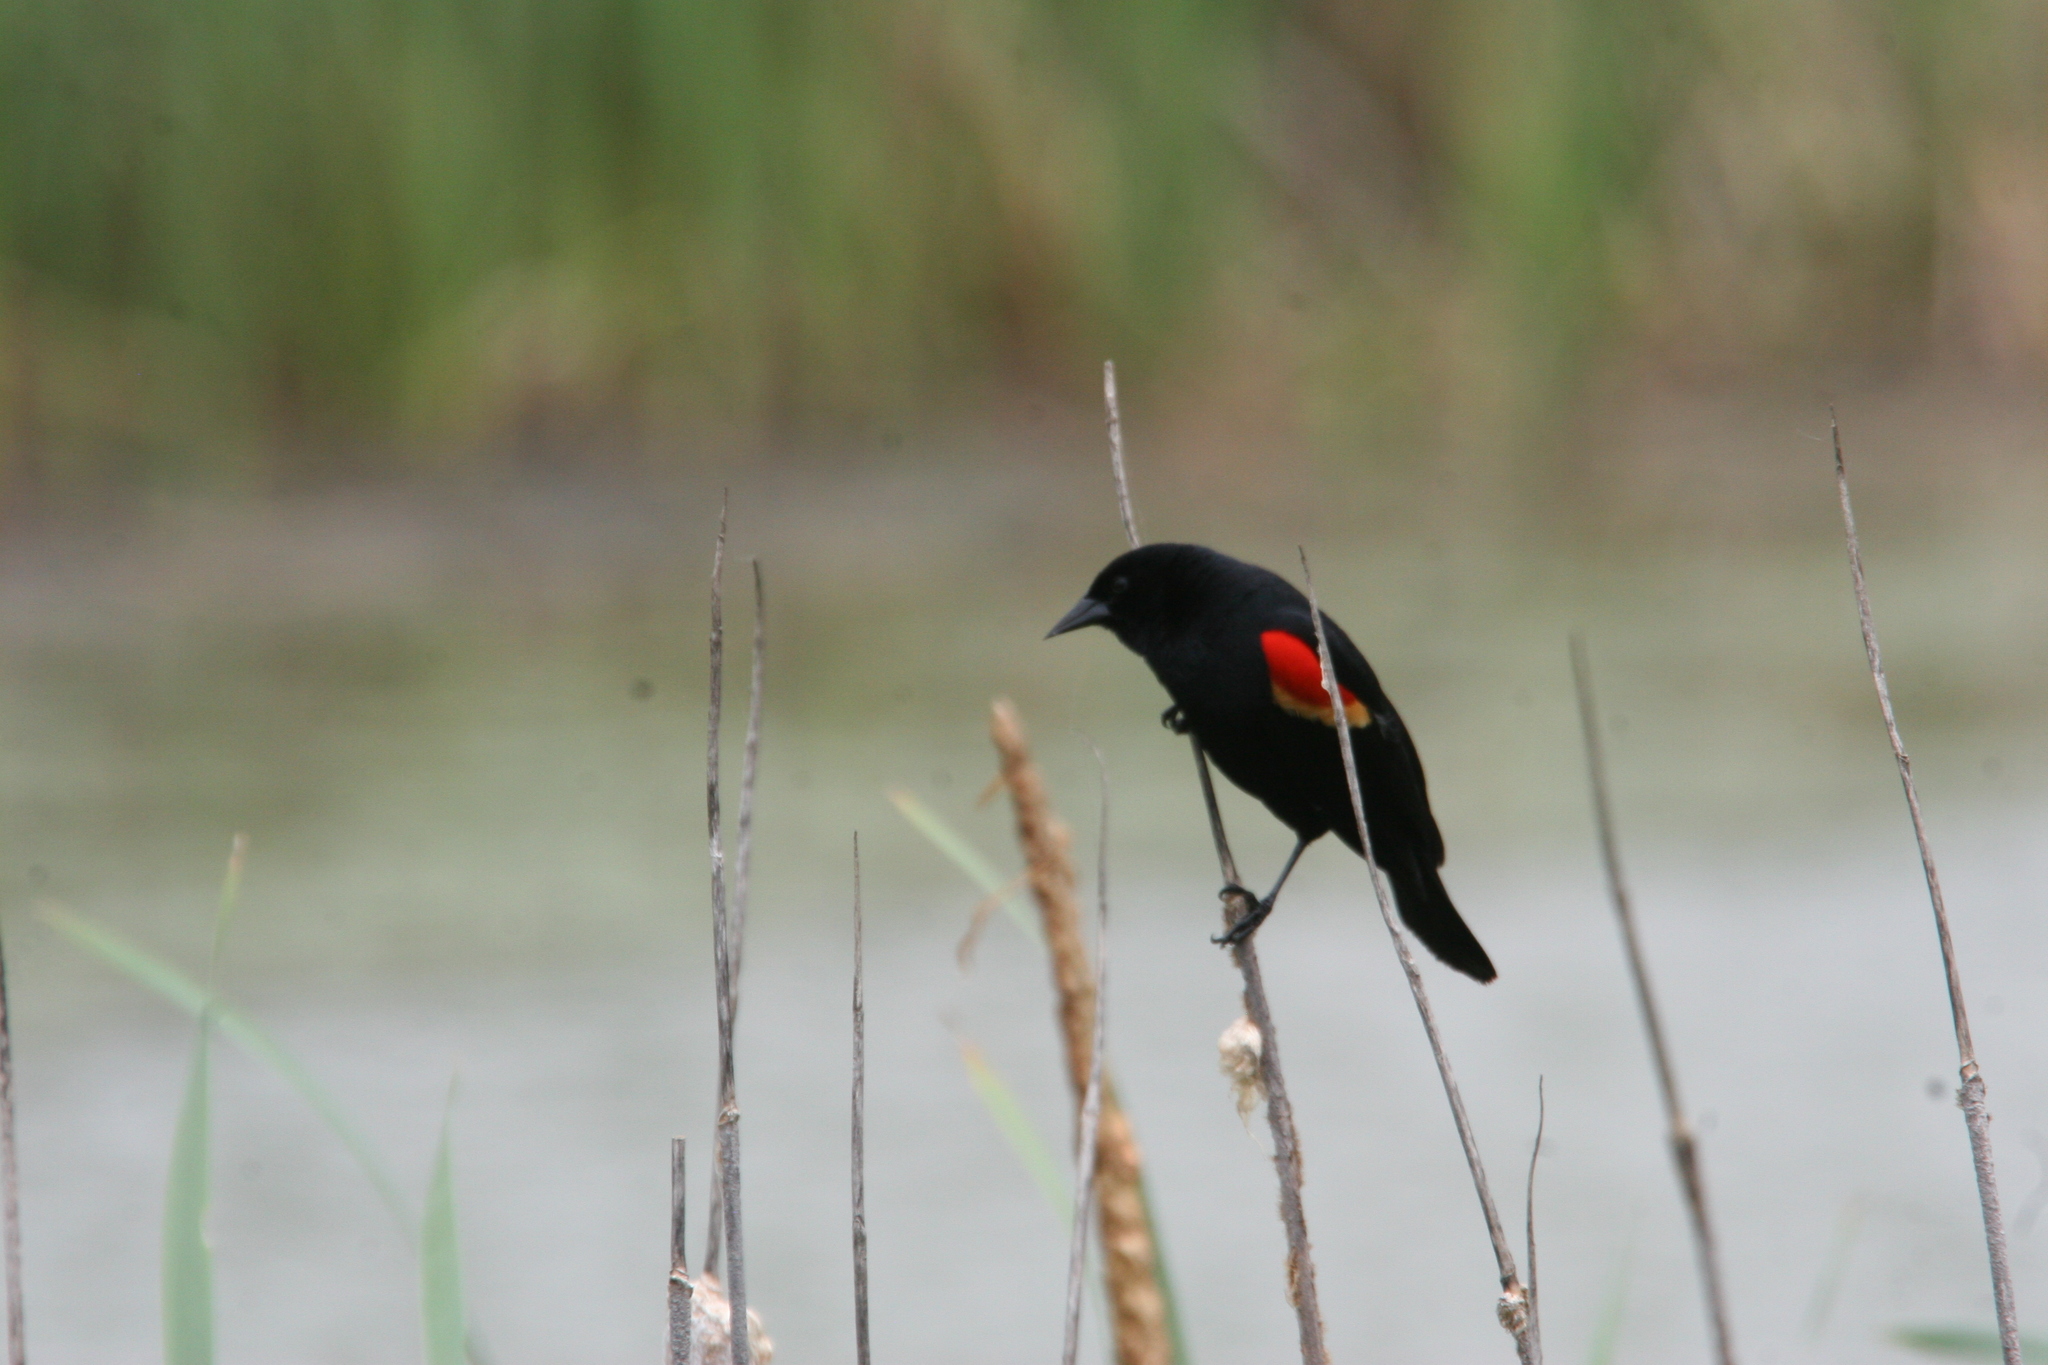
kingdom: Animalia
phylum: Chordata
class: Aves
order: Passeriformes
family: Icteridae
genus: Agelaius
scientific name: Agelaius phoeniceus
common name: Red-winged blackbird
